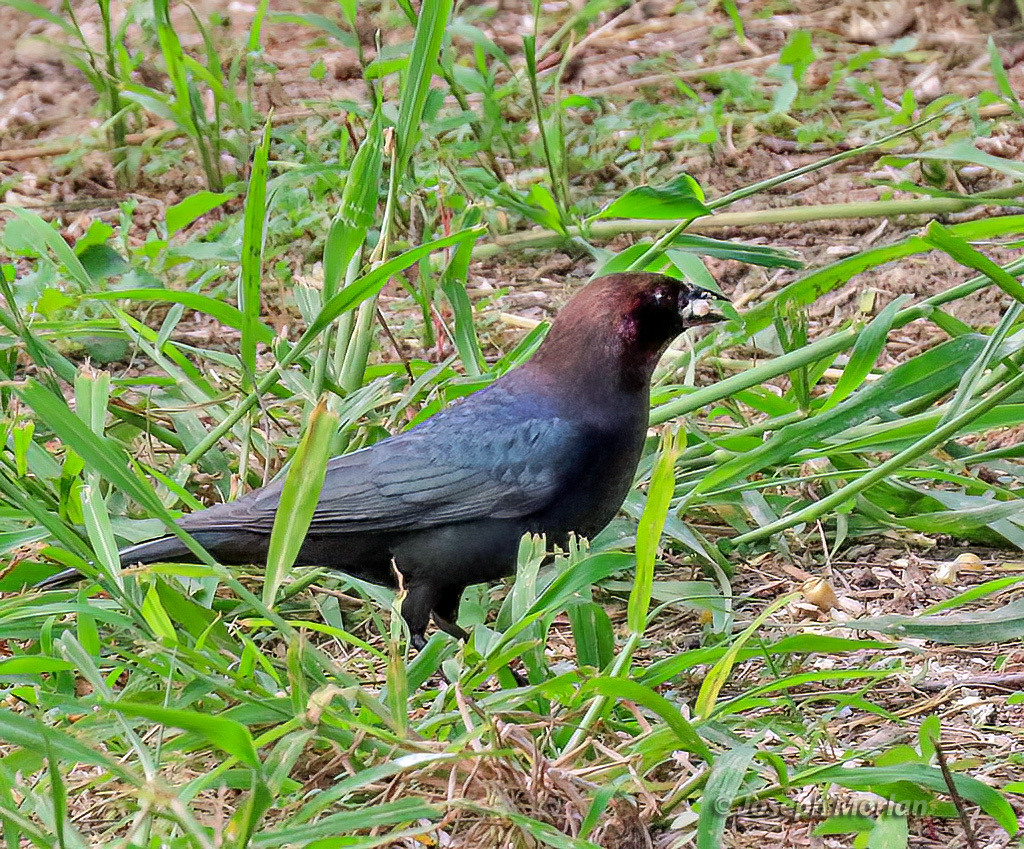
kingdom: Animalia
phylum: Chordata
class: Aves
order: Passeriformes
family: Icteridae
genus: Molothrus
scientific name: Molothrus ater
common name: Brown-headed cowbird
